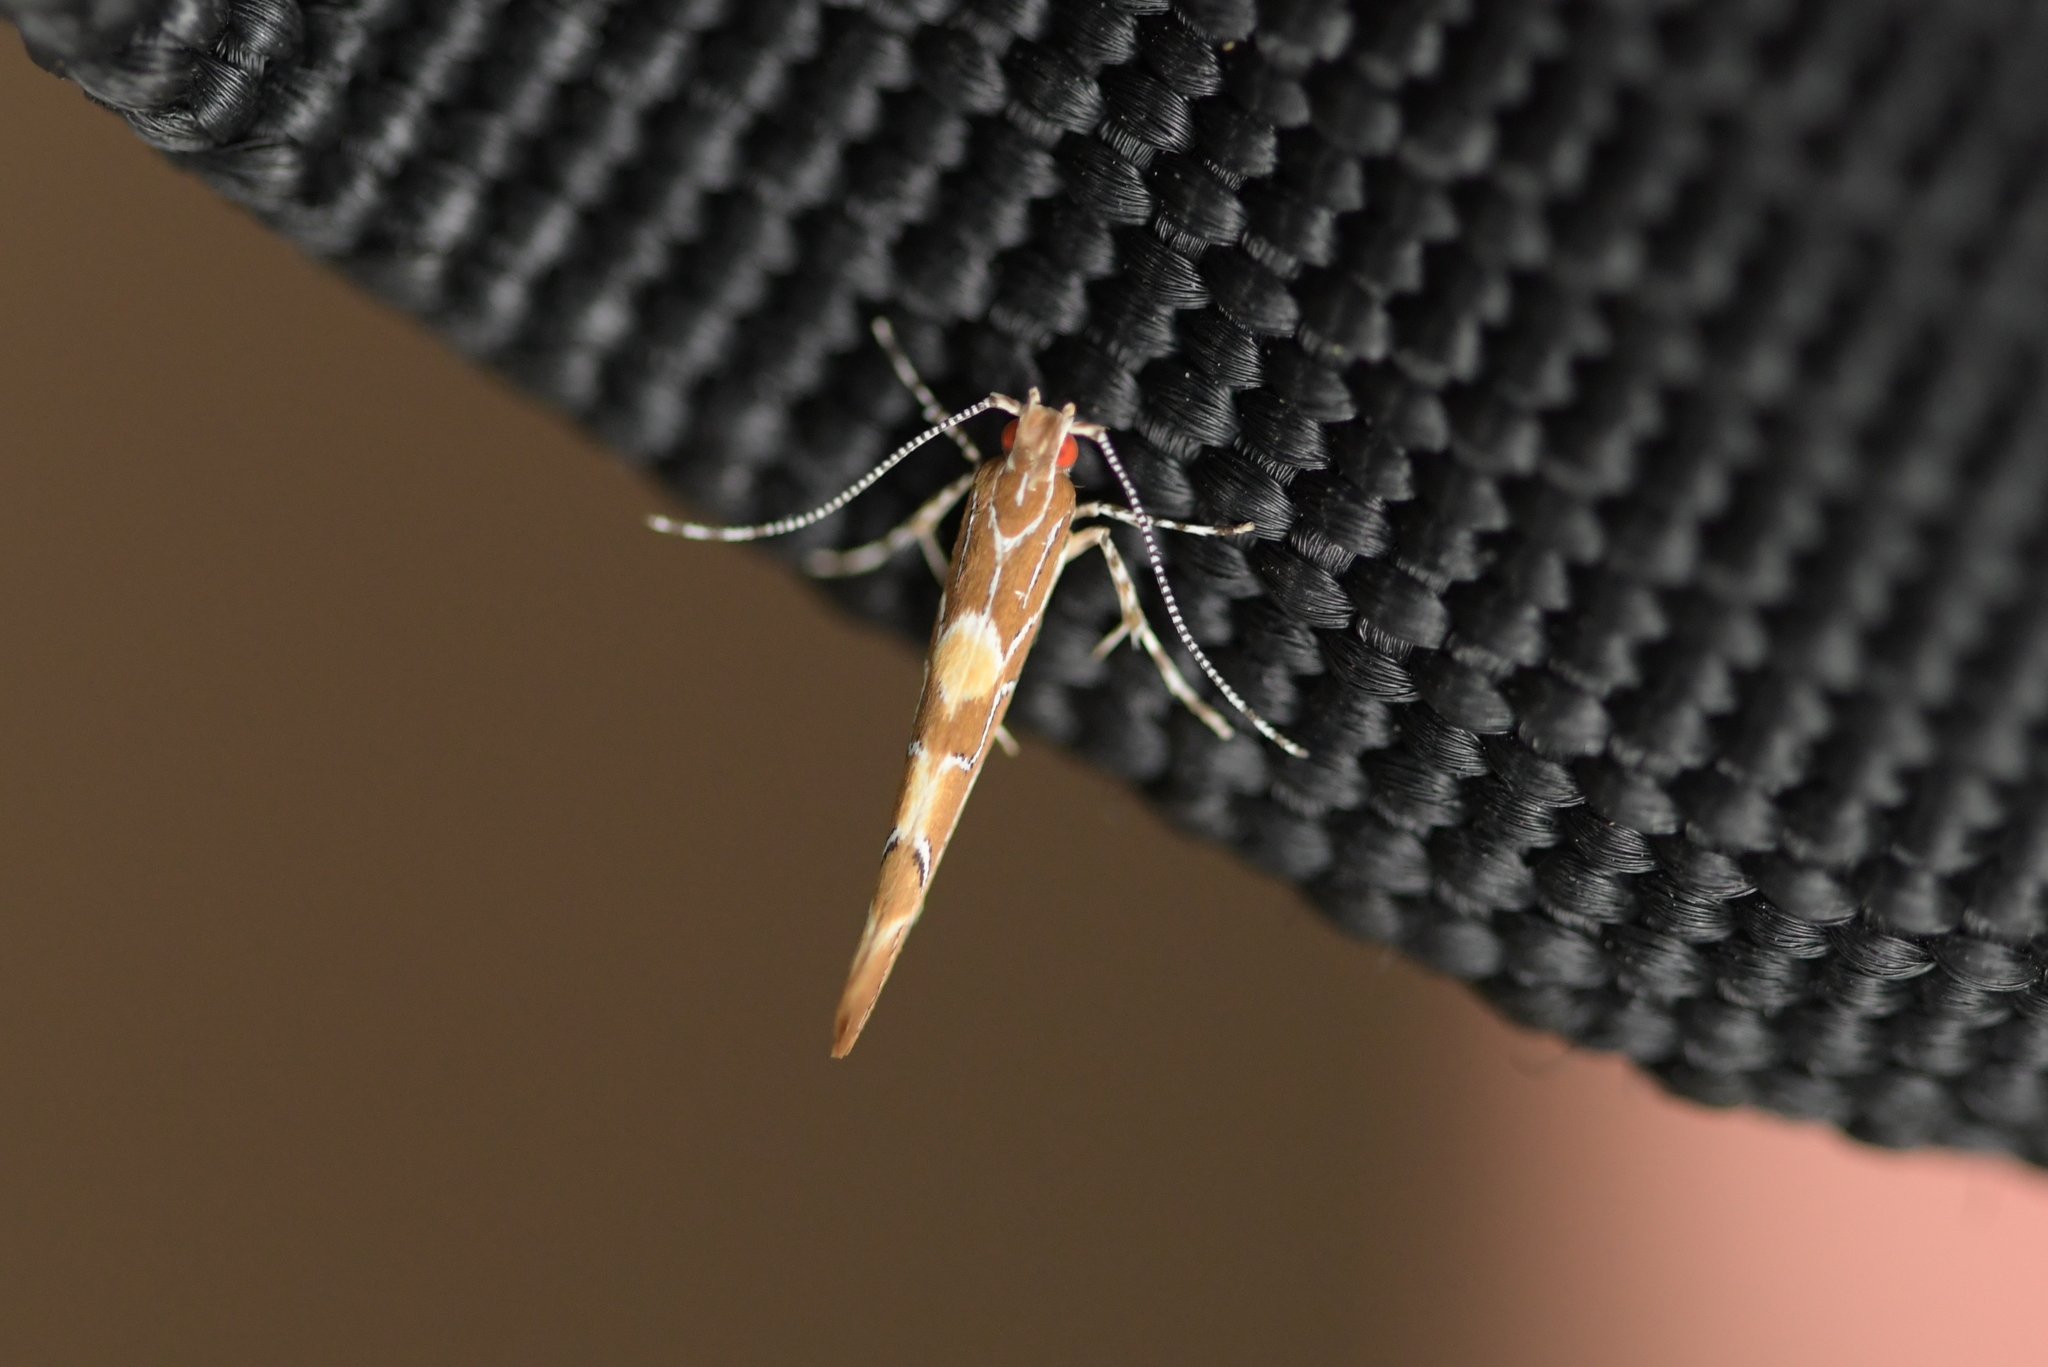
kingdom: Animalia
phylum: Arthropoda
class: Insecta
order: Lepidoptera
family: Cosmopterigidae
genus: Pyroderces
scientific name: Pyroderces apparitella
